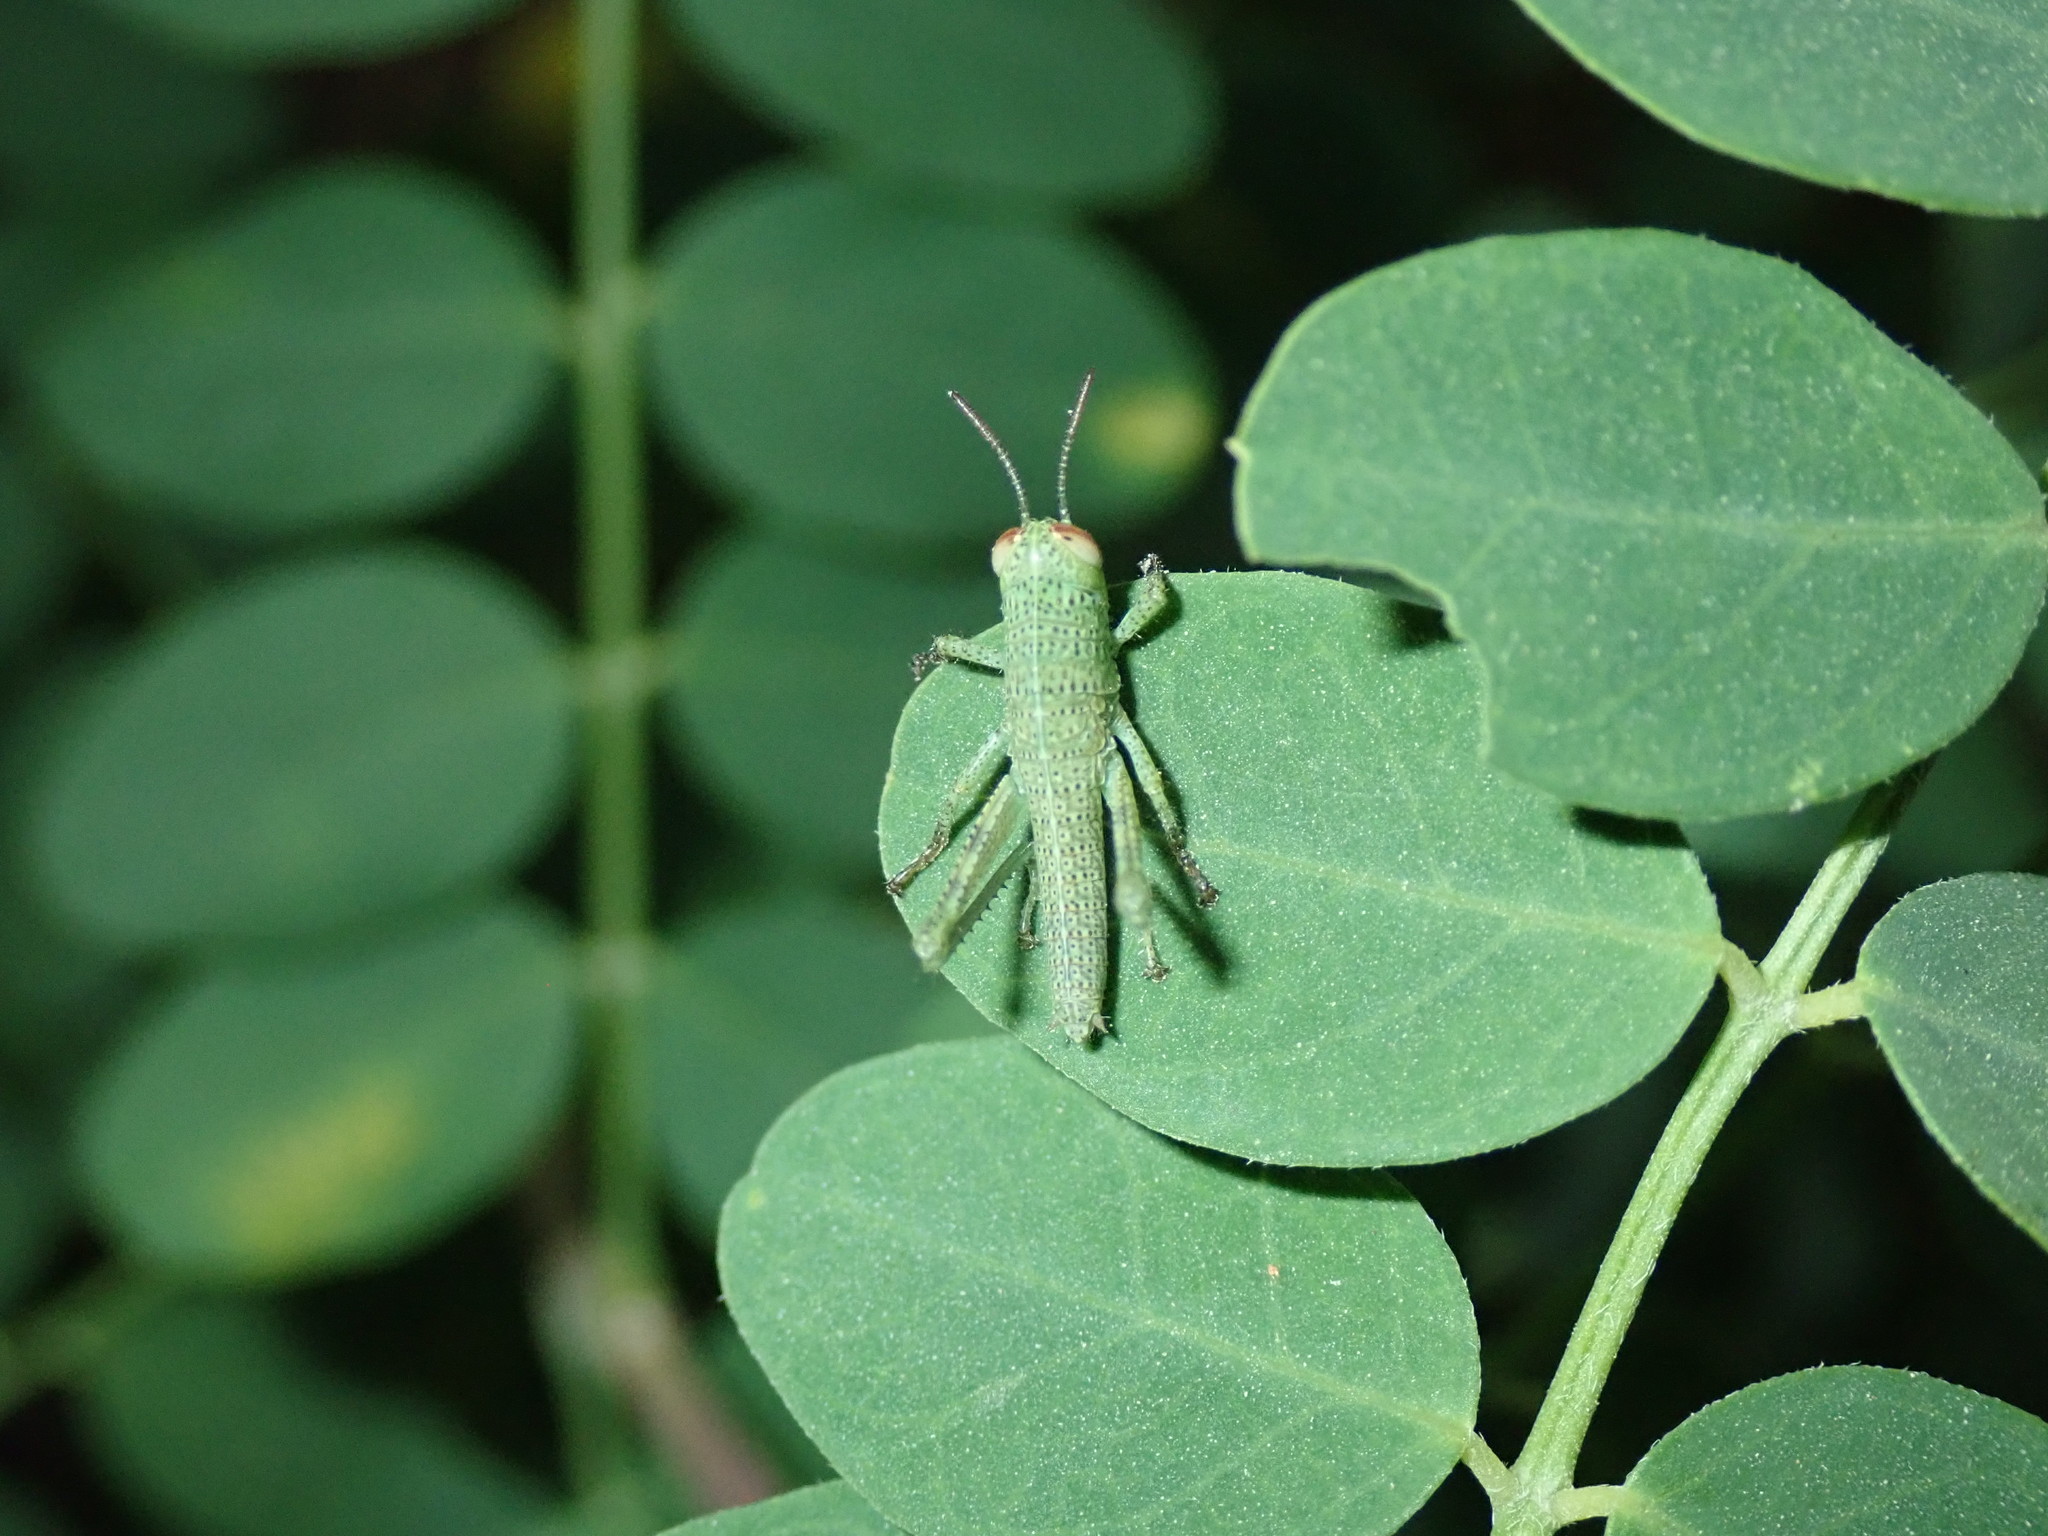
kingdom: Animalia
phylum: Arthropoda
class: Insecta
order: Orthoptera
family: Acrididae
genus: Anacridium
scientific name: Anacridium aegyptium
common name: Egyptian grasshopper
